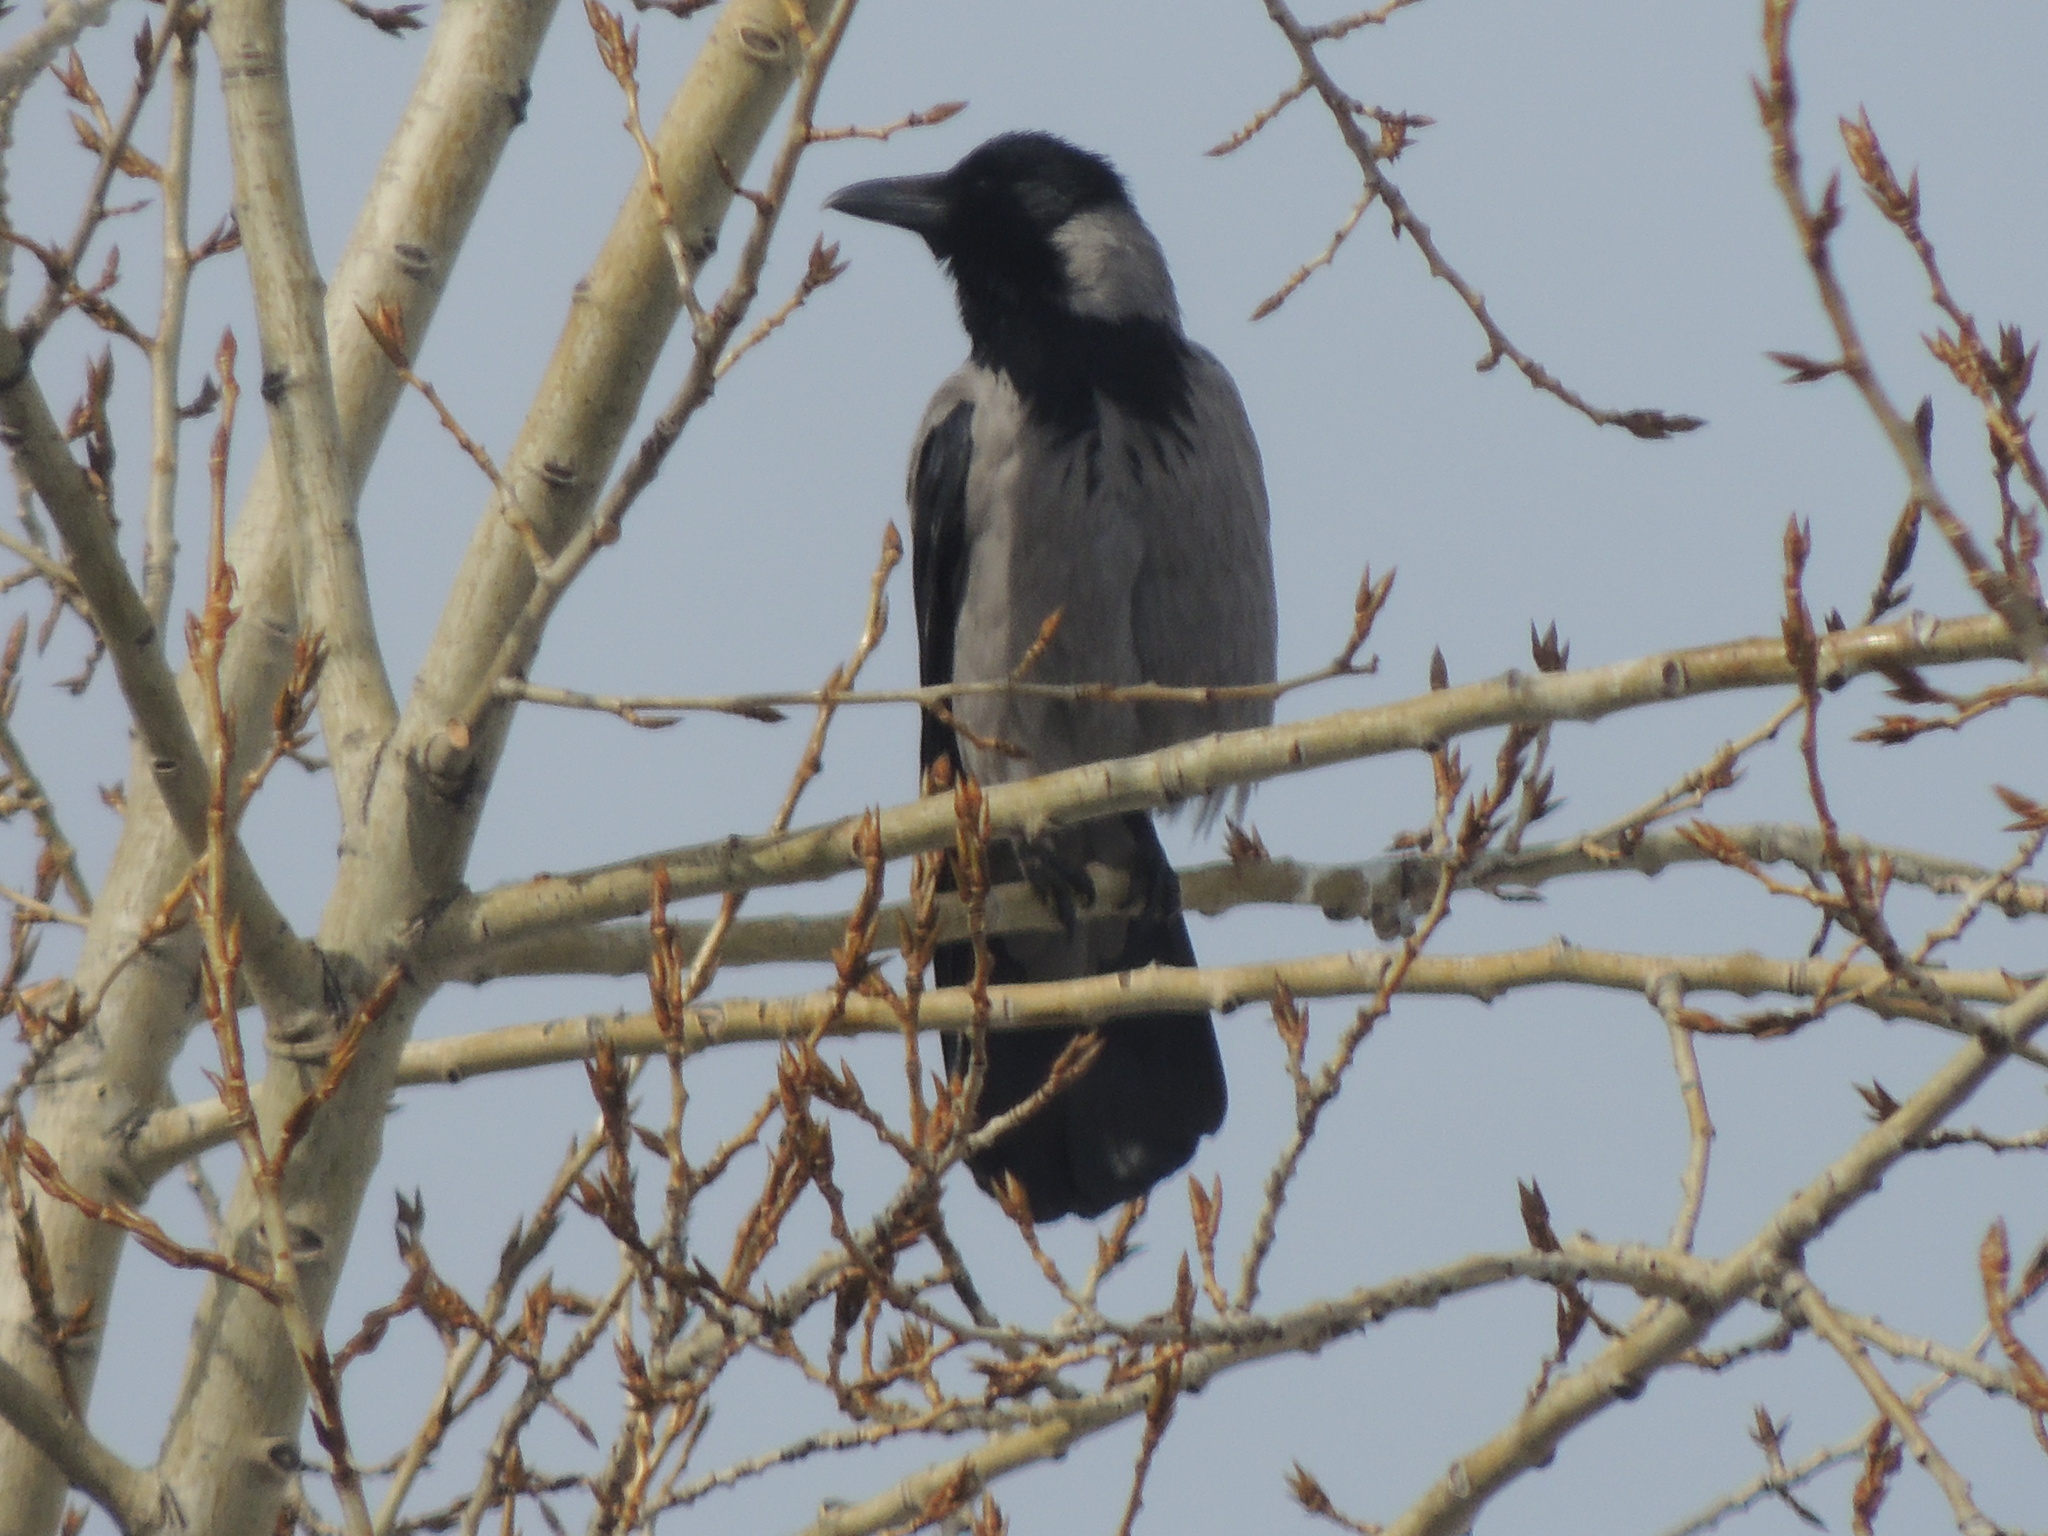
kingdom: Animalia
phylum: Chordata
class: Aves
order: Passeriformes
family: Corvidae
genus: Corvus
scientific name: Corvus cornix
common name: Hooded crow
